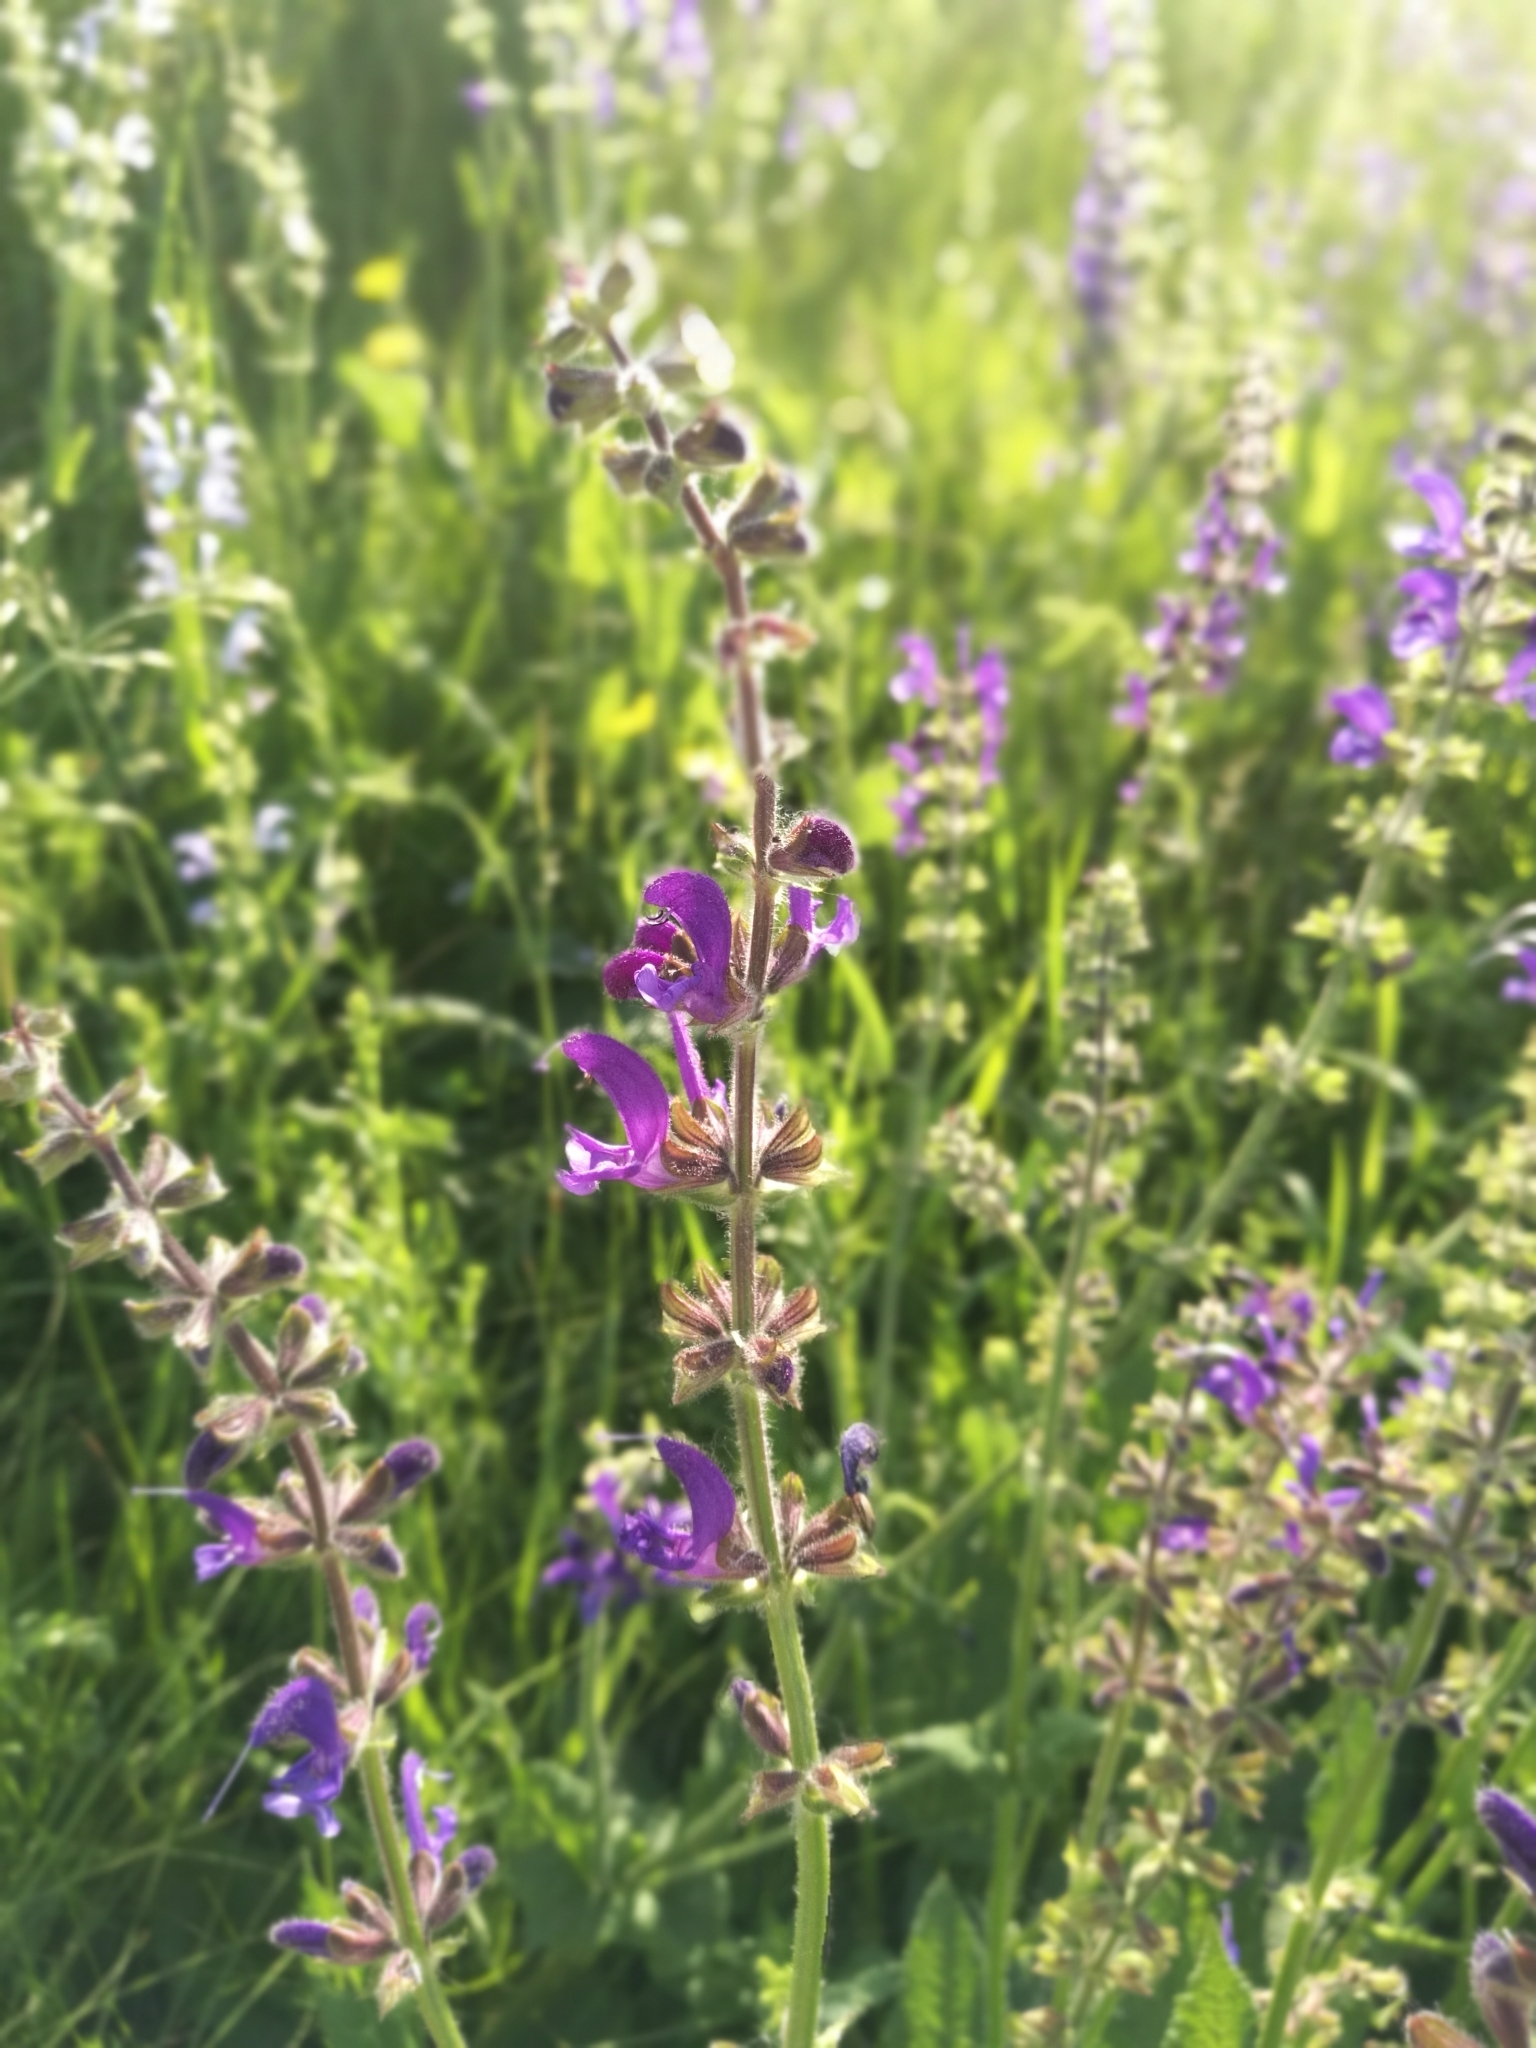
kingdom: Plantae
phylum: Tracheophyta
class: Magnoliopsida
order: Lamiales
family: Lamiaceae
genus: Salvia
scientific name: Salvia pratensis
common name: Meadow sage
